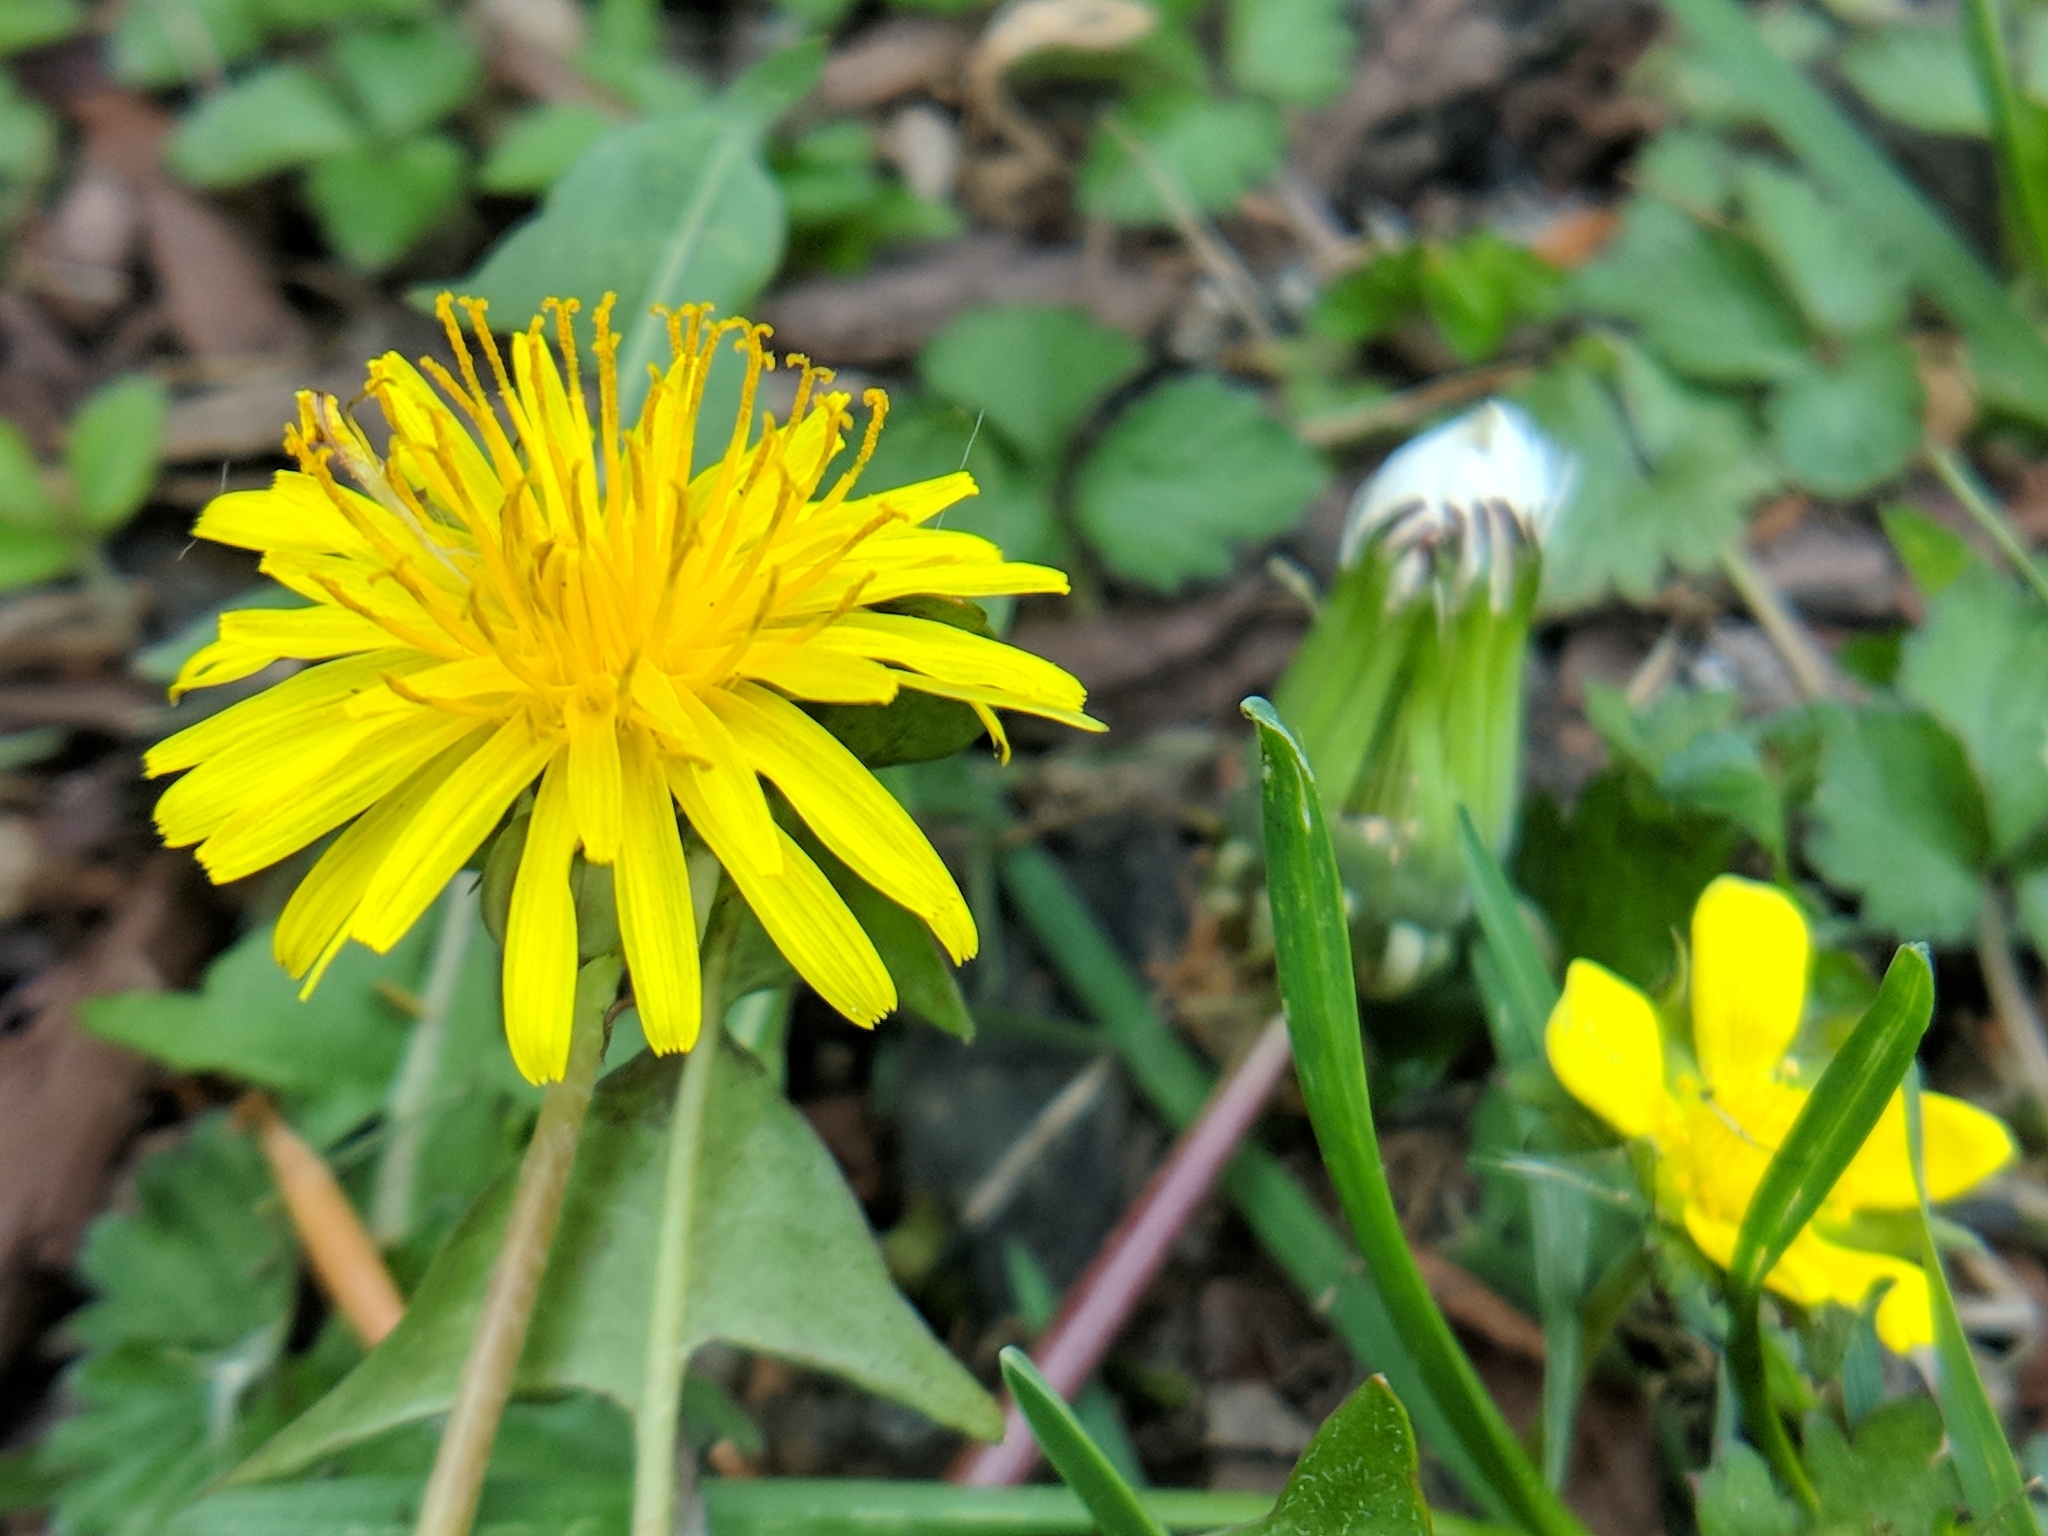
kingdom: Plantae
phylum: Tracheophyta
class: Magnoliopsida
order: Asterales
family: Asteraceae
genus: Taraxacum
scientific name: Taraxacum officinale
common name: Common dandelion
